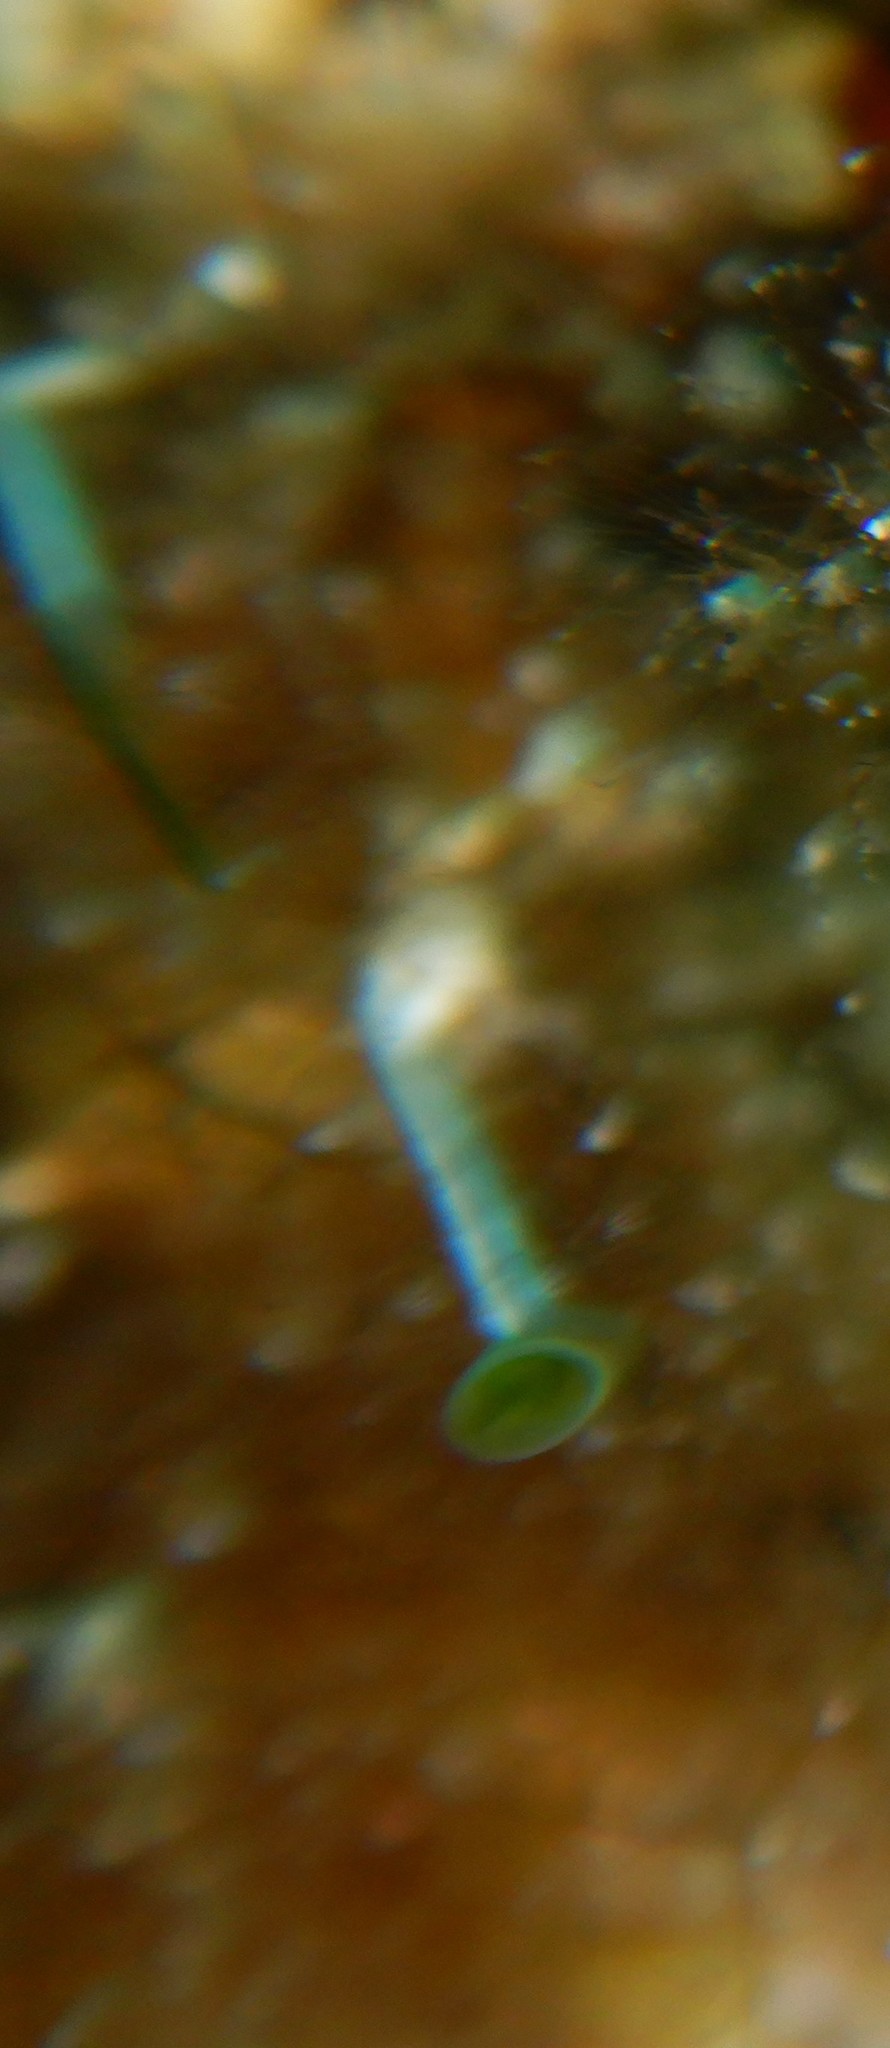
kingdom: Plantae
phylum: Chlorophyta
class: Ulvophyceae
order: Dasycladales
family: Polyphysaceae
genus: Acetabularia
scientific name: Acetabularia acetabulum
